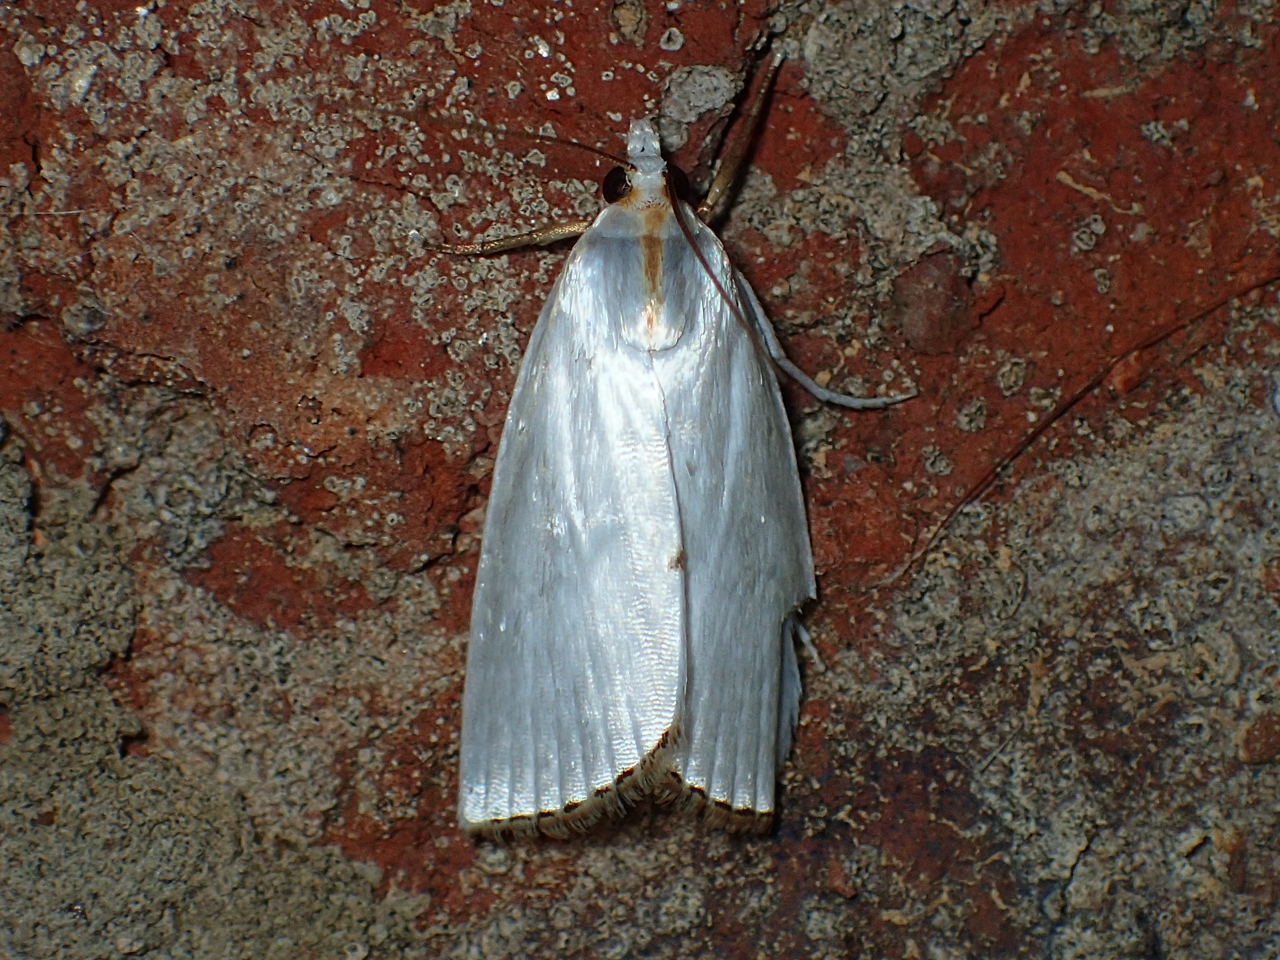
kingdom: Animalia
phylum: Arthropoda
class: Insecta
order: Lepidoptera
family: Crambidae
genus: Argyria
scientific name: Argyria nivalis
